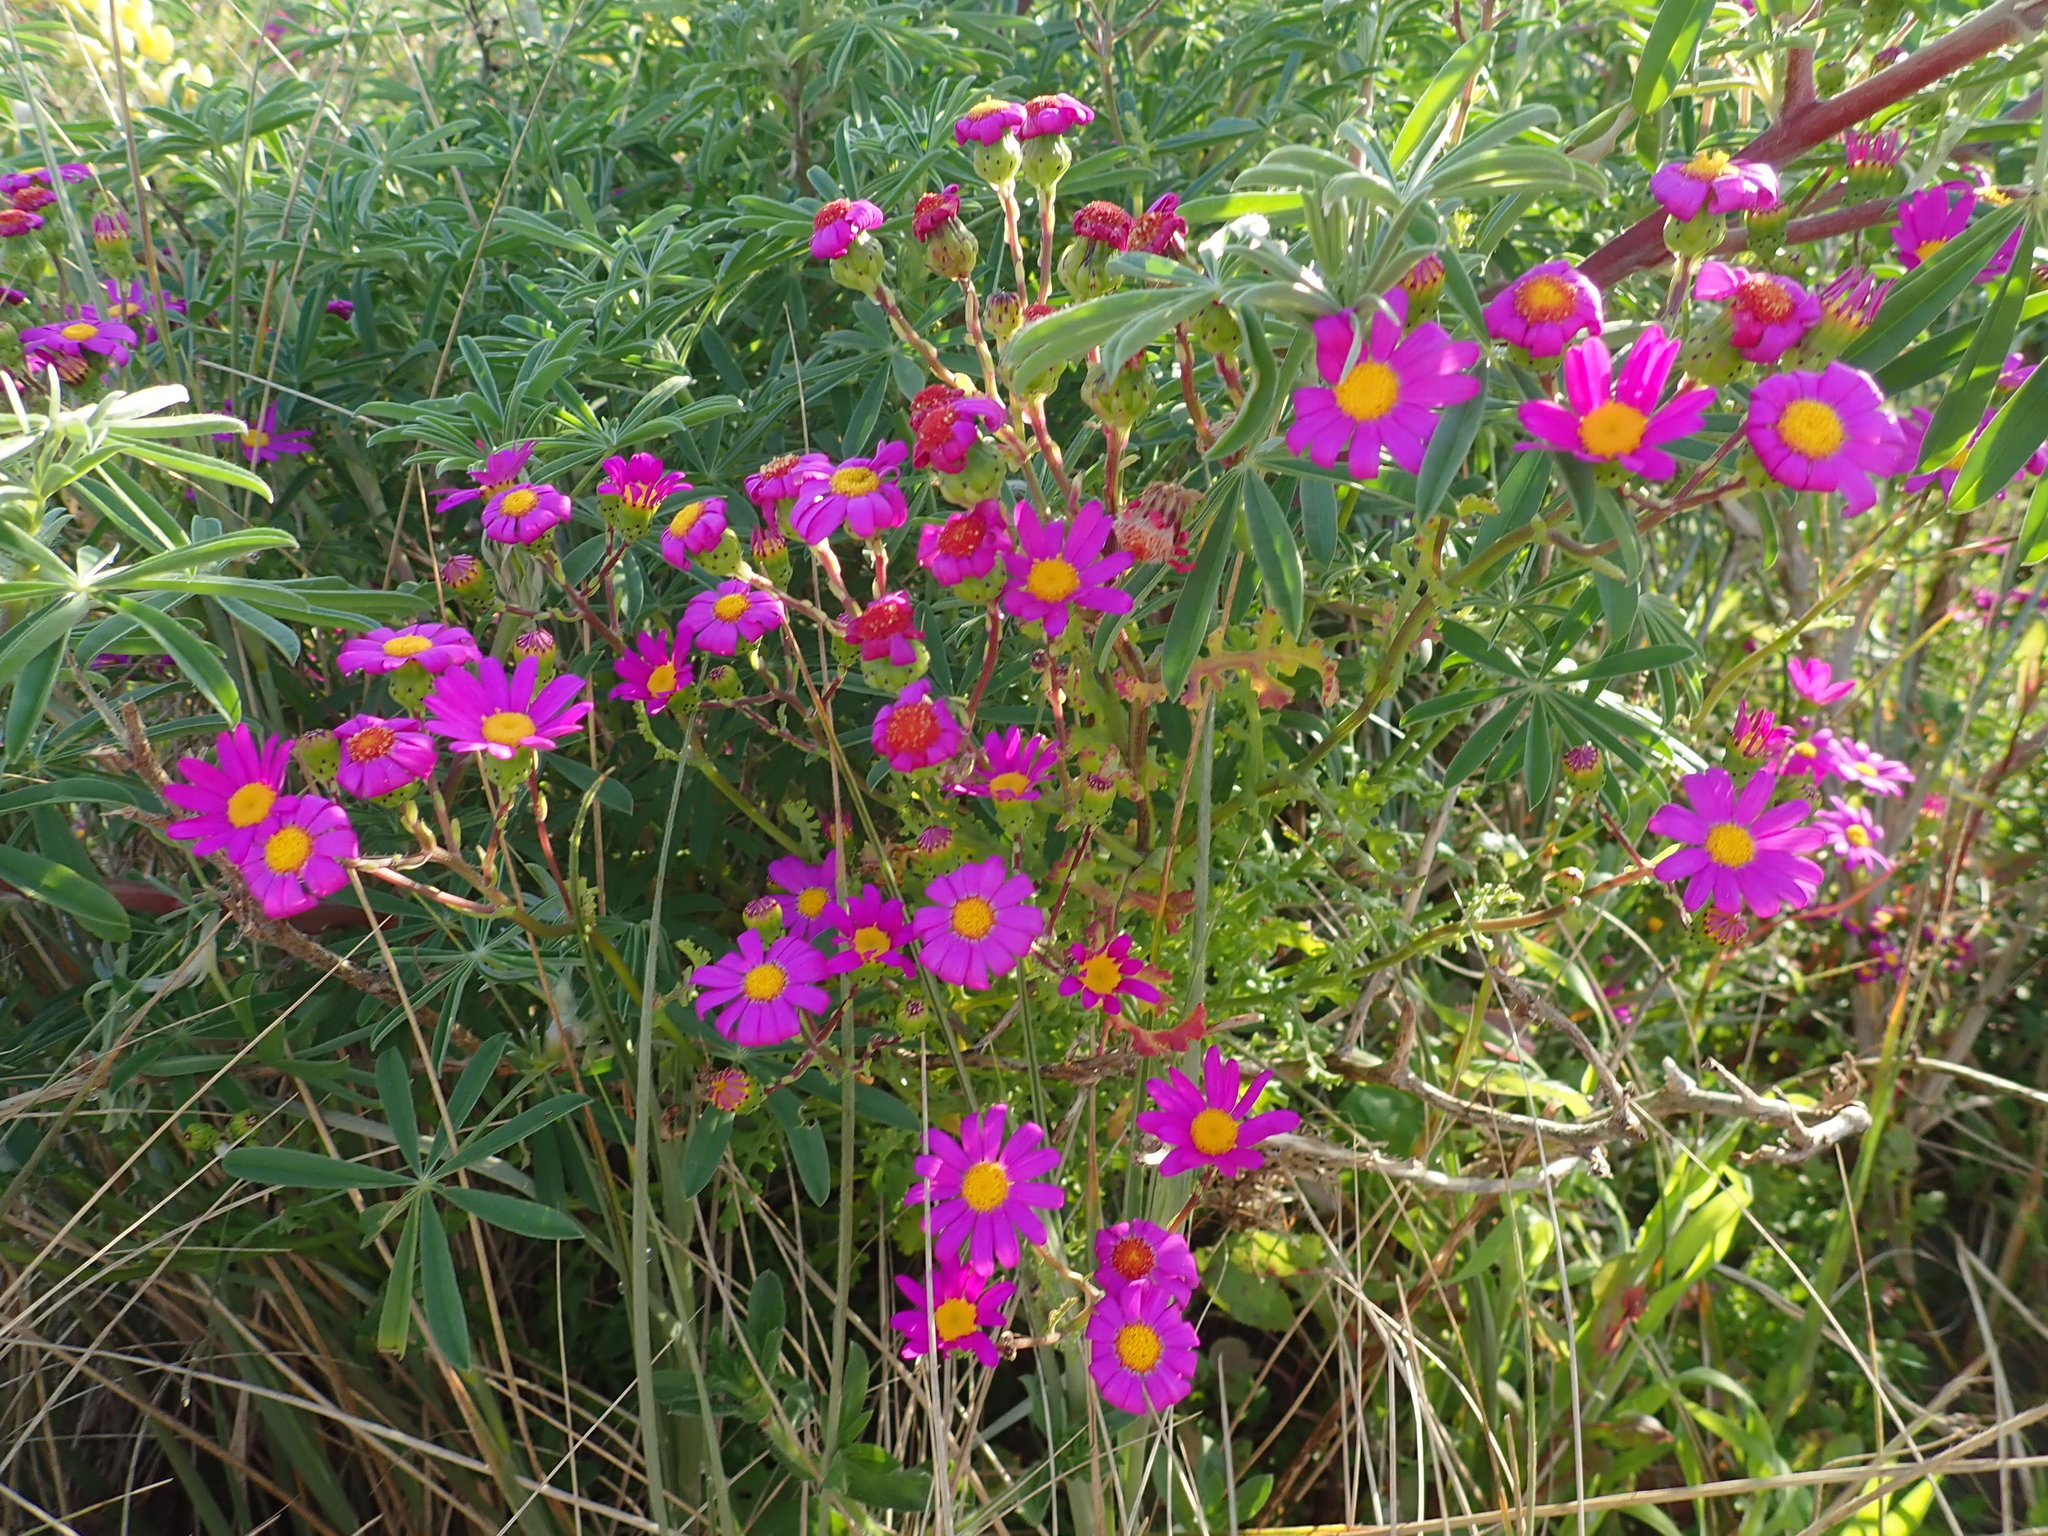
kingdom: Plantae
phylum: Tracheophyta
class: Magnoliopsida
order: Asterales
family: Asteraceae
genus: Senecio
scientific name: Senecio elegans
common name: Purple groundsel
